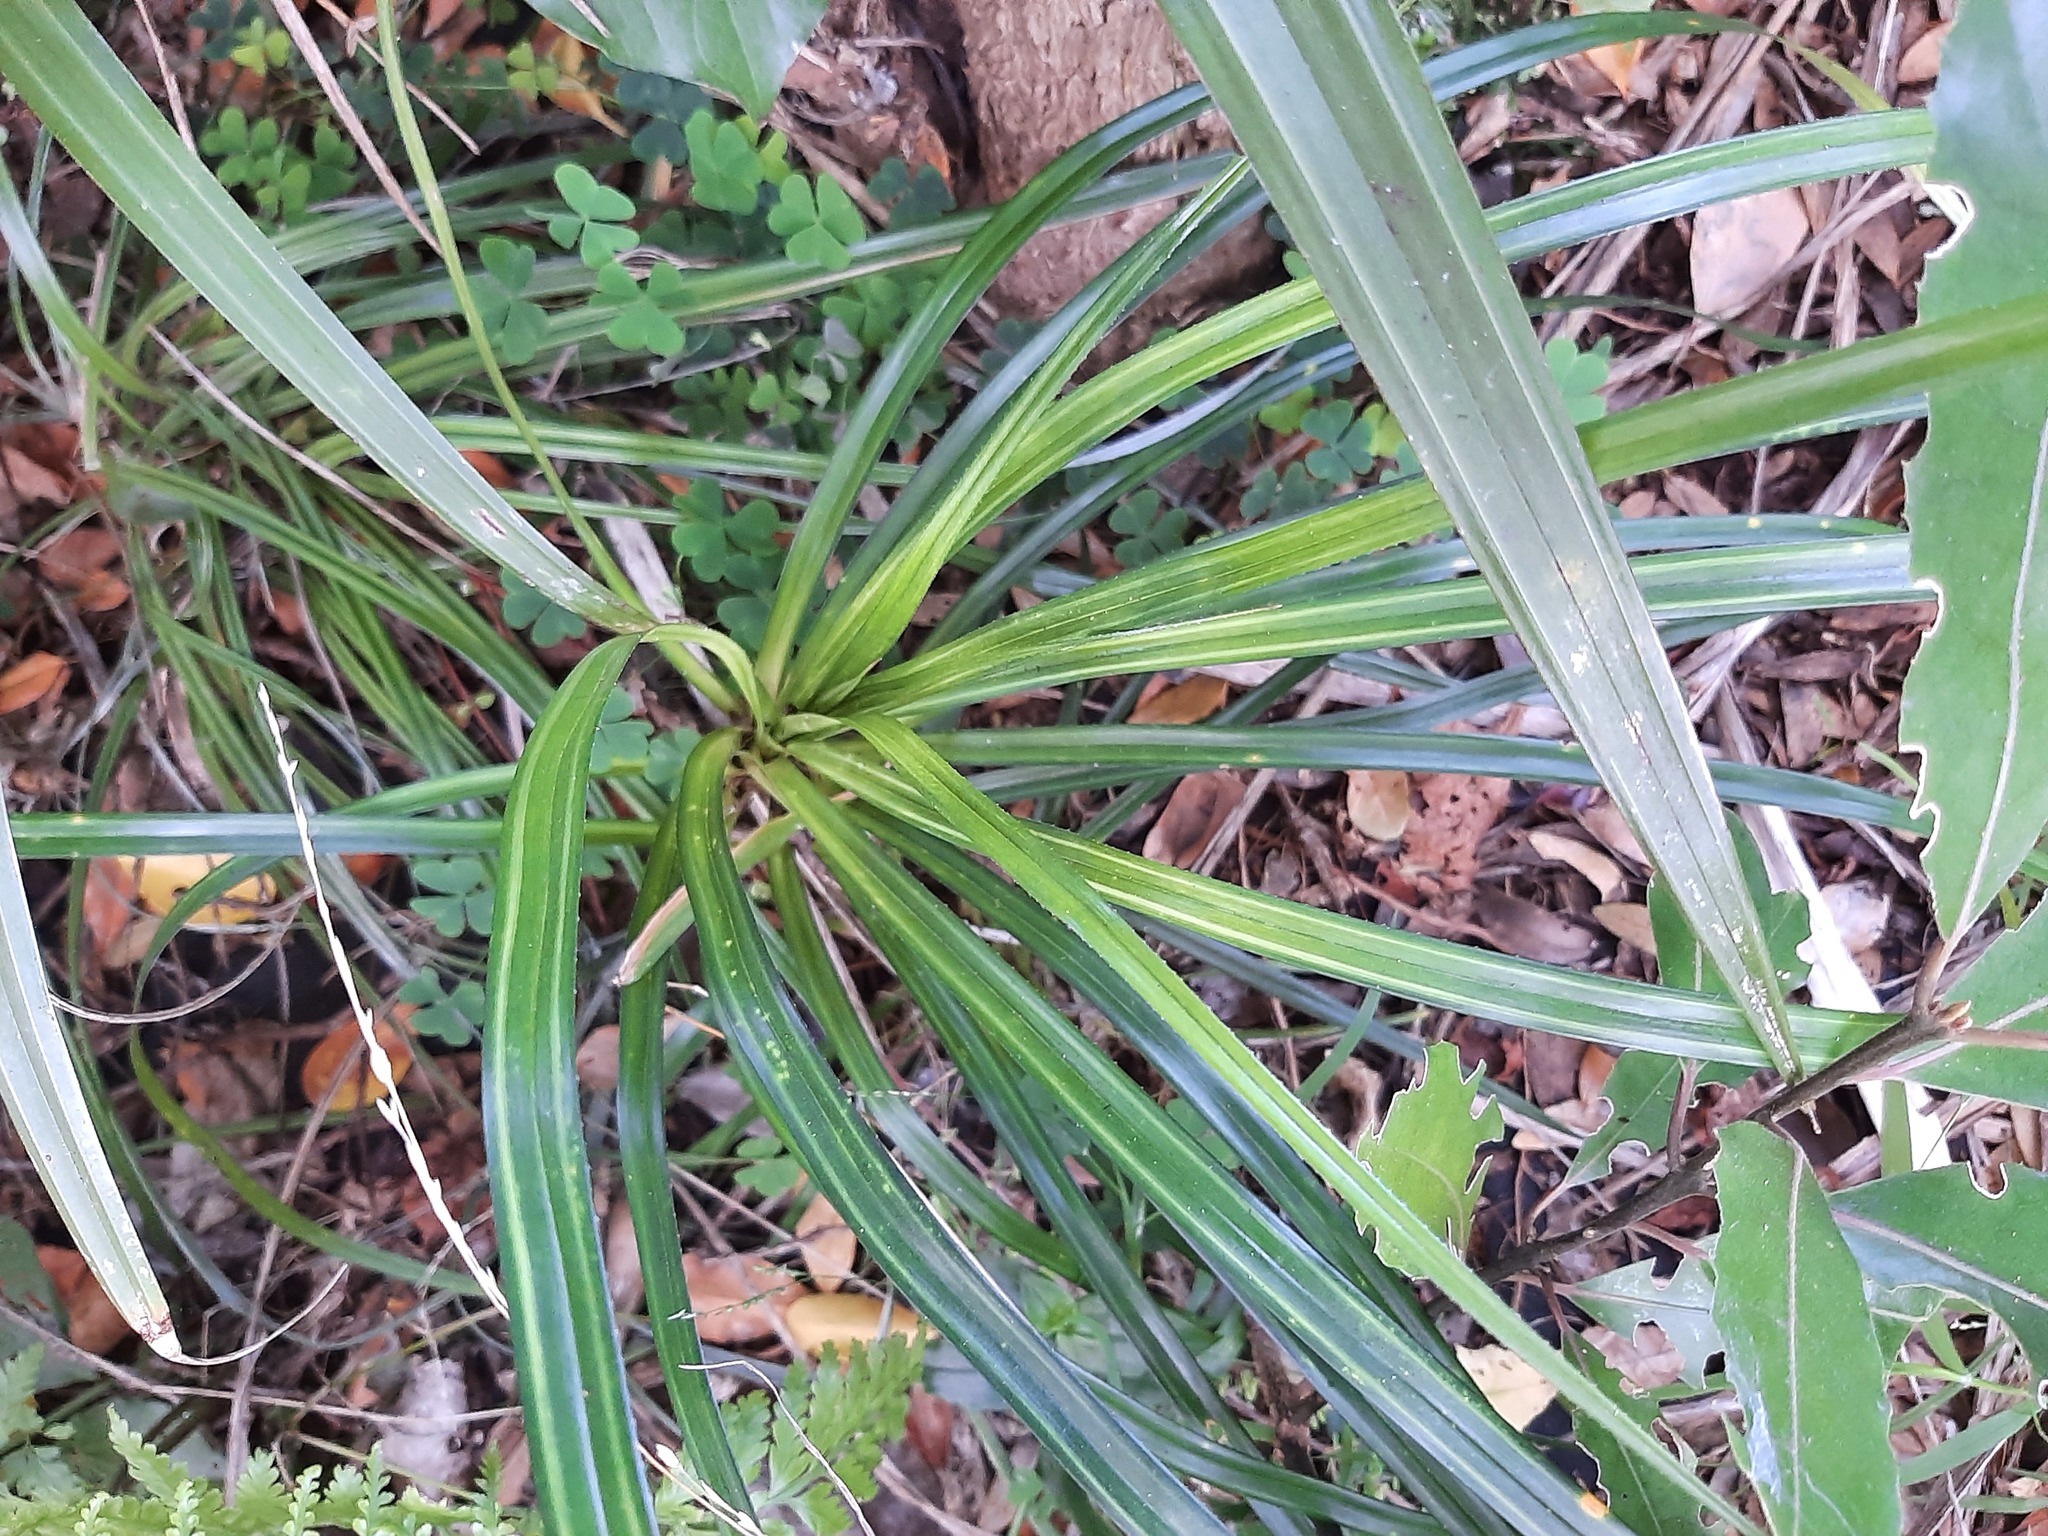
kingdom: Plantae
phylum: Tracheophyta
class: Liliopsida
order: Pandanales
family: Pandanaceae
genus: Freycinetia
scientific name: Freycinetia banksii
